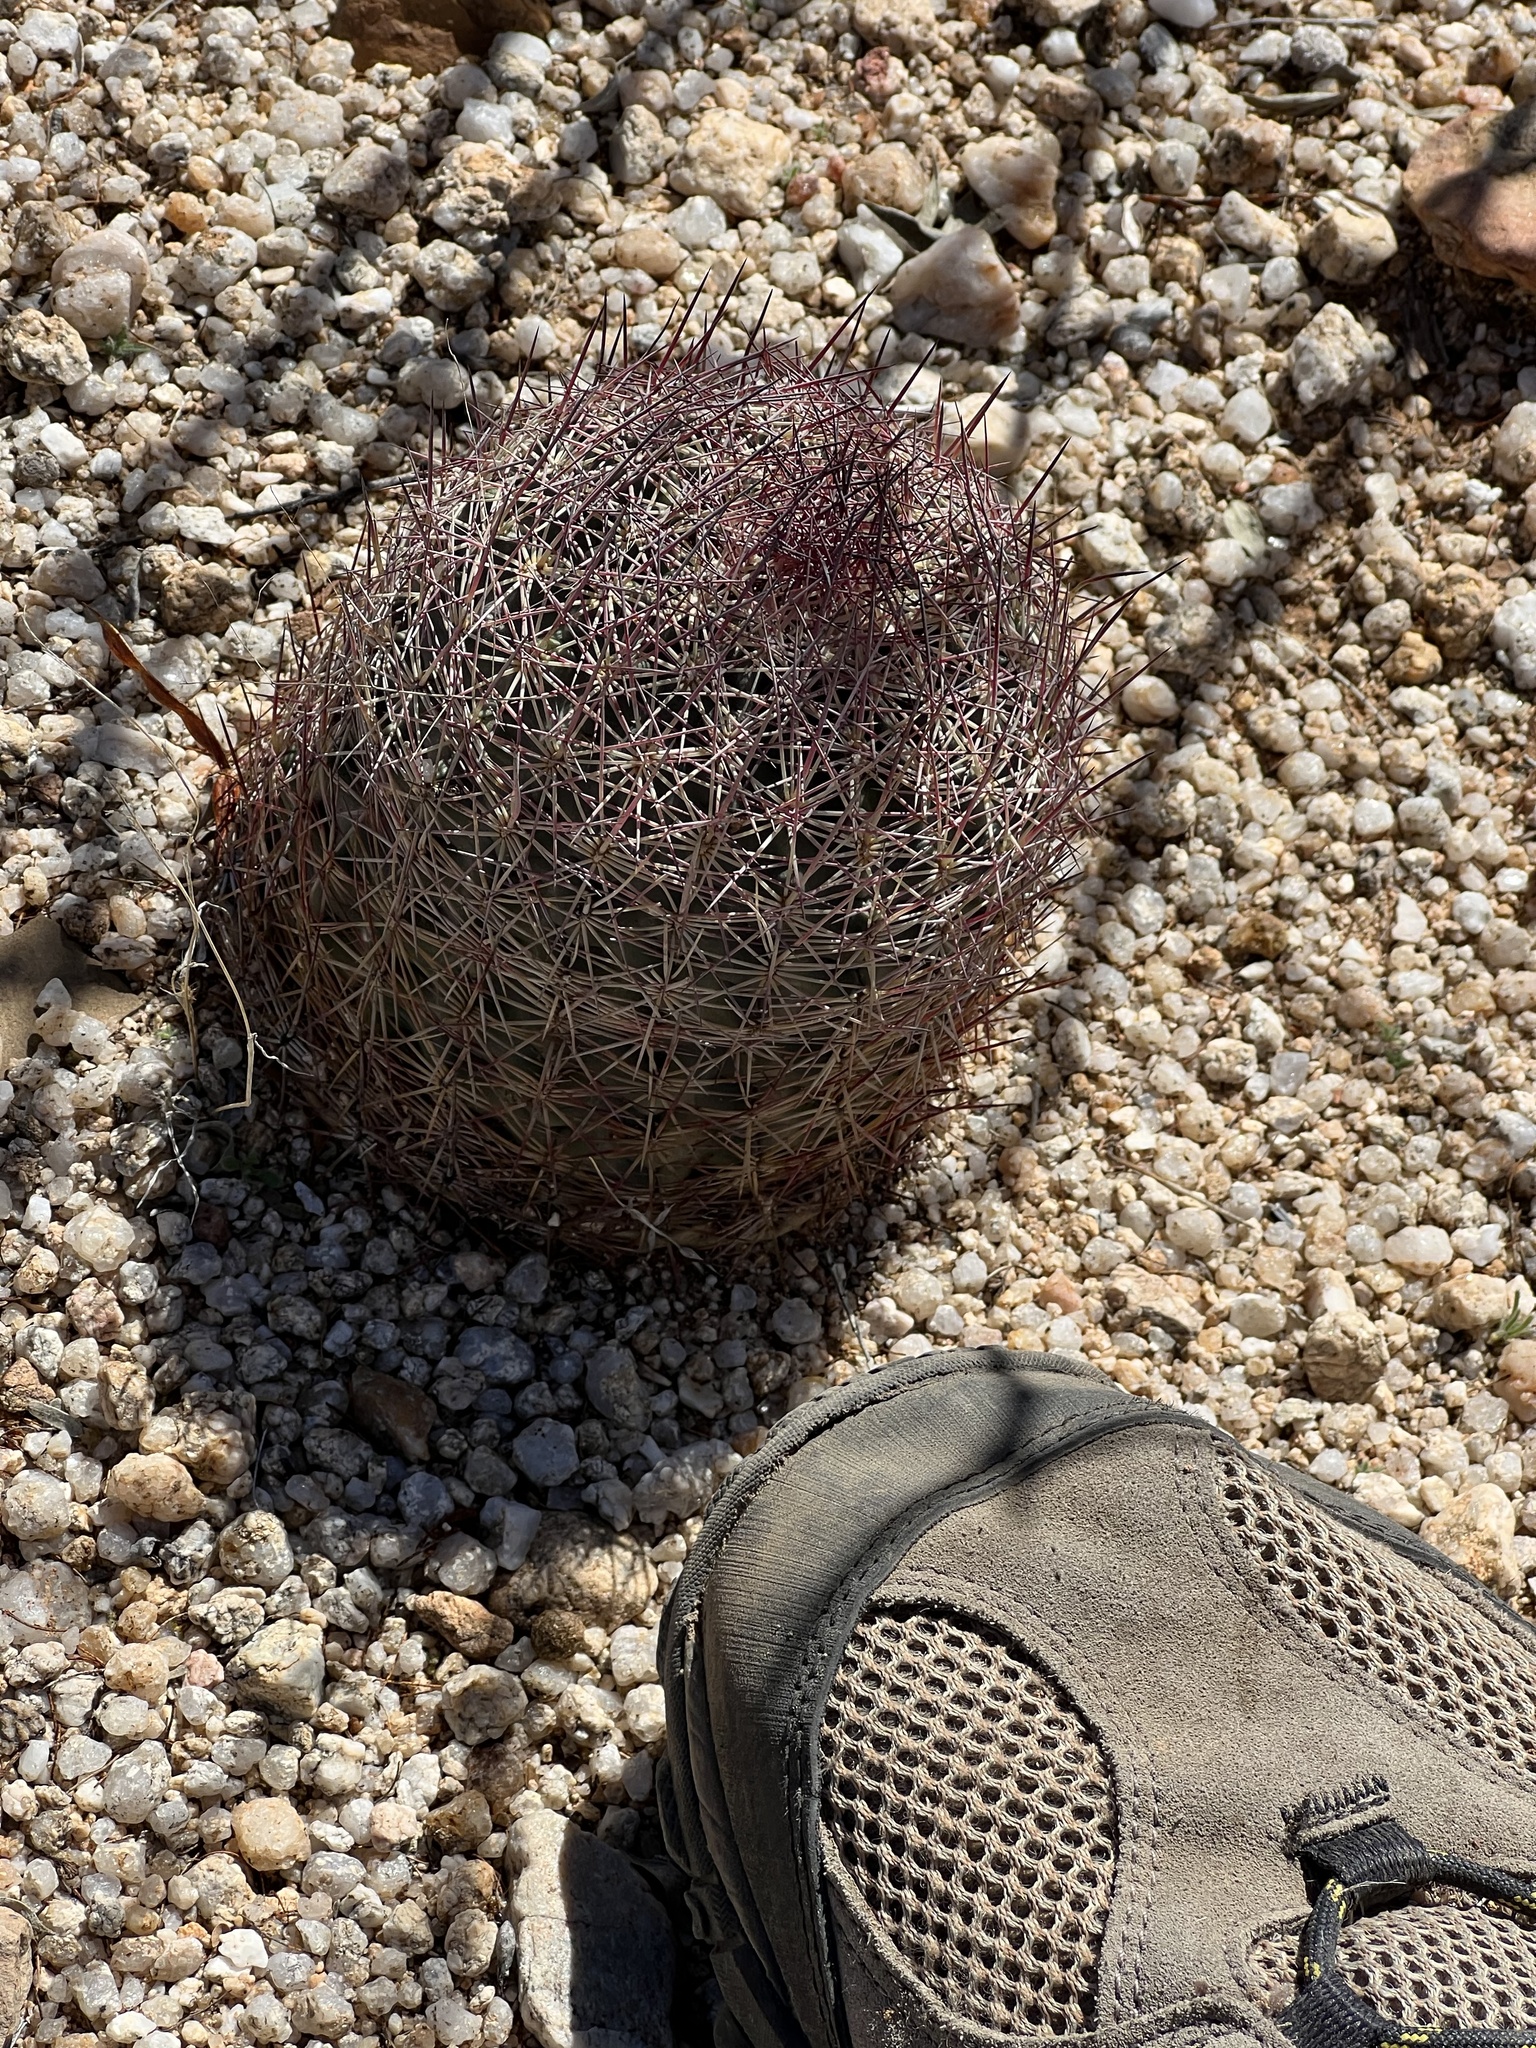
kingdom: Plantae
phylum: Tracheophyta
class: Magnoliopsida
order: Caryophyllales
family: Cactaceae
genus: Sclerocactus
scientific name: Sclerocactus johnsonii
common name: Eight-spine fishhook cactus
